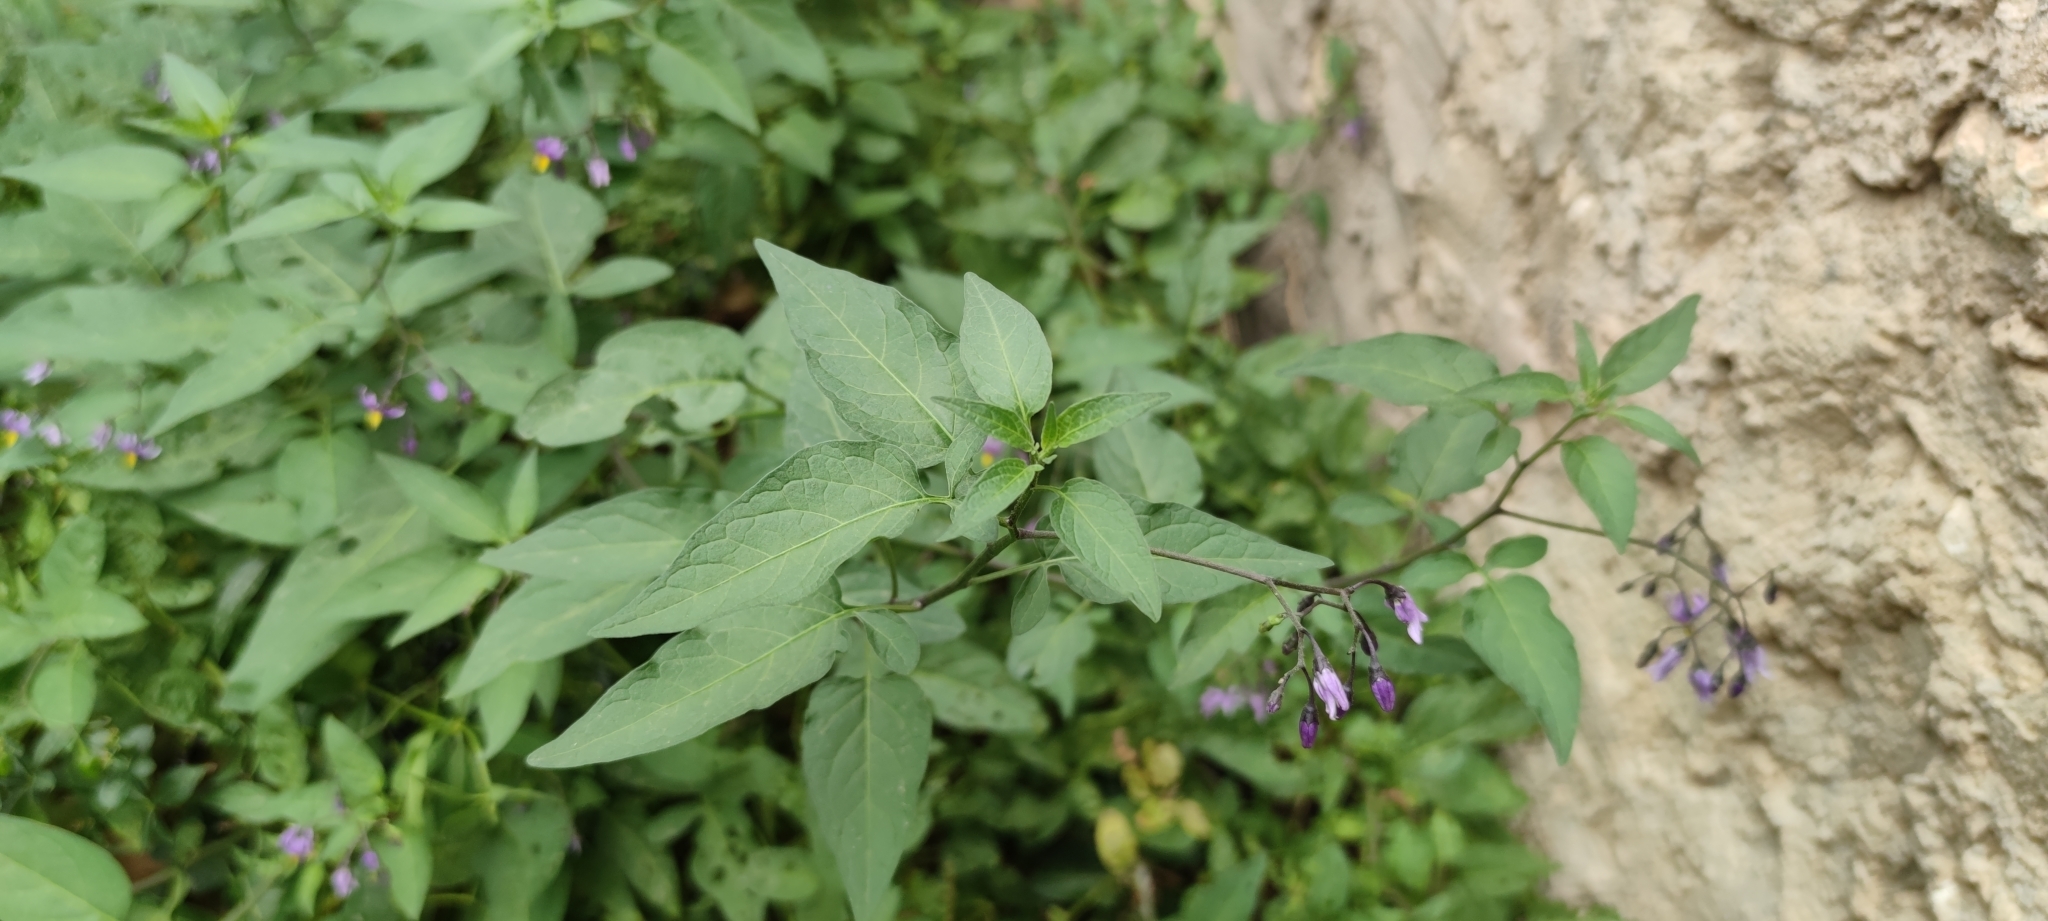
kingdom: Plantae
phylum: Tracheophyta
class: Magnoliopsida
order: Solanales
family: Solanaceae
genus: Solanum
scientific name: Solanum dulcamara
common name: Climbing nightshade
